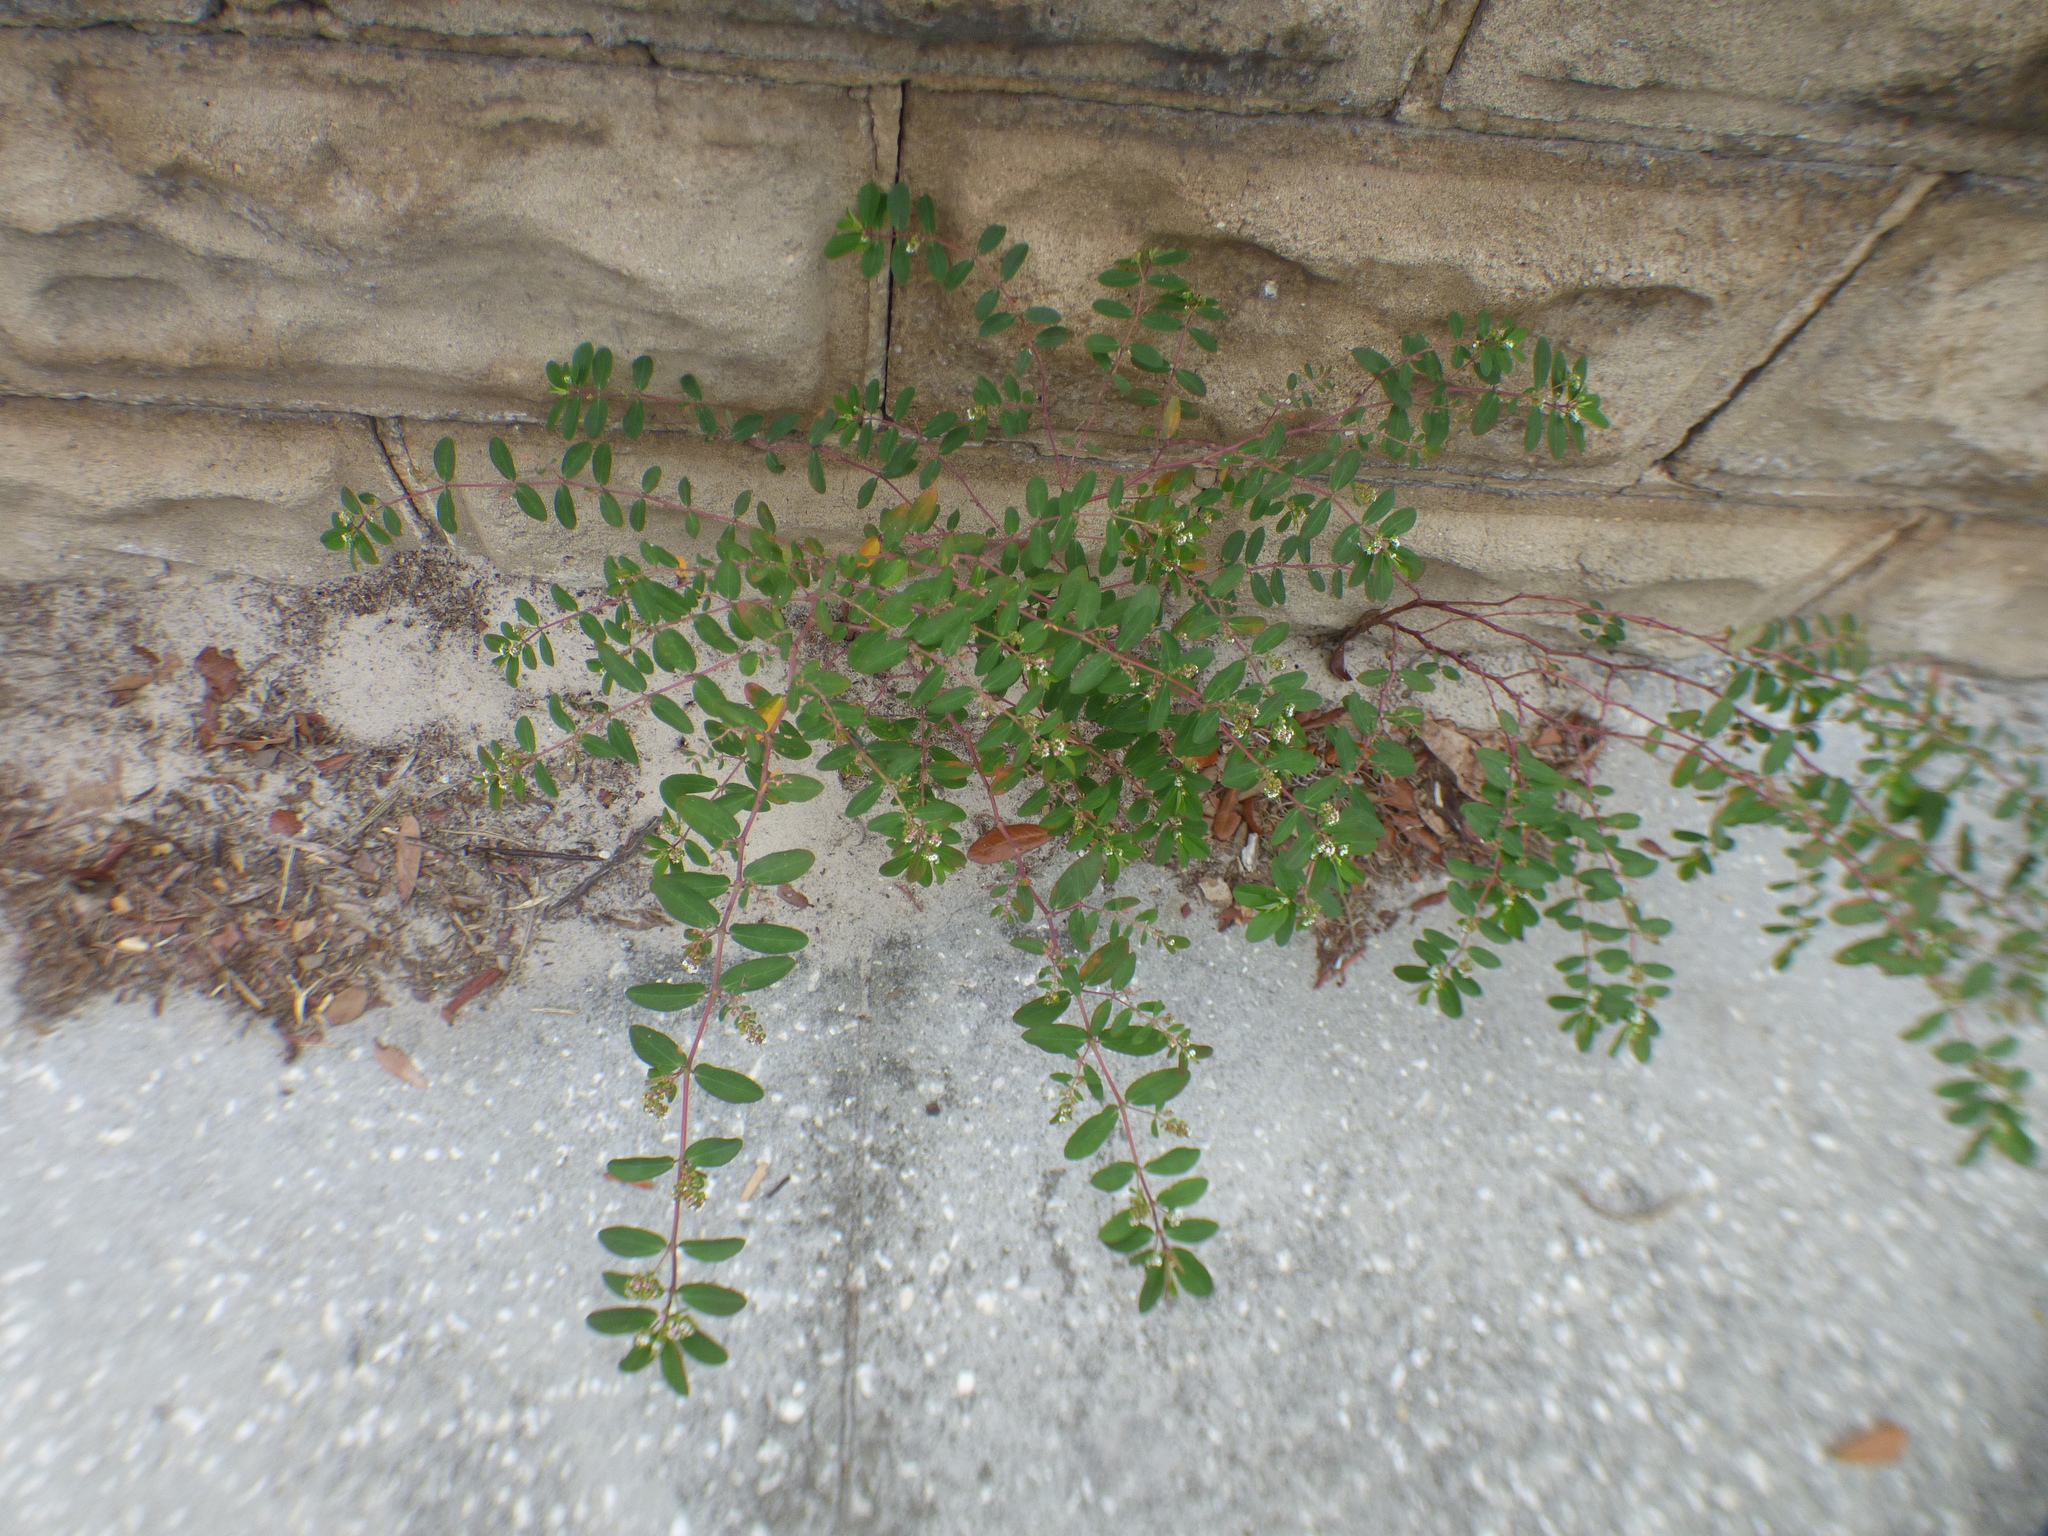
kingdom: Plantae
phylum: Tracheophyta
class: Magnoliopsida
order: Malpighiales
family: Euphorbiaceae
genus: Euphorbia
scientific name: Euphorbia hypericifolia
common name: Graceful sandmat
